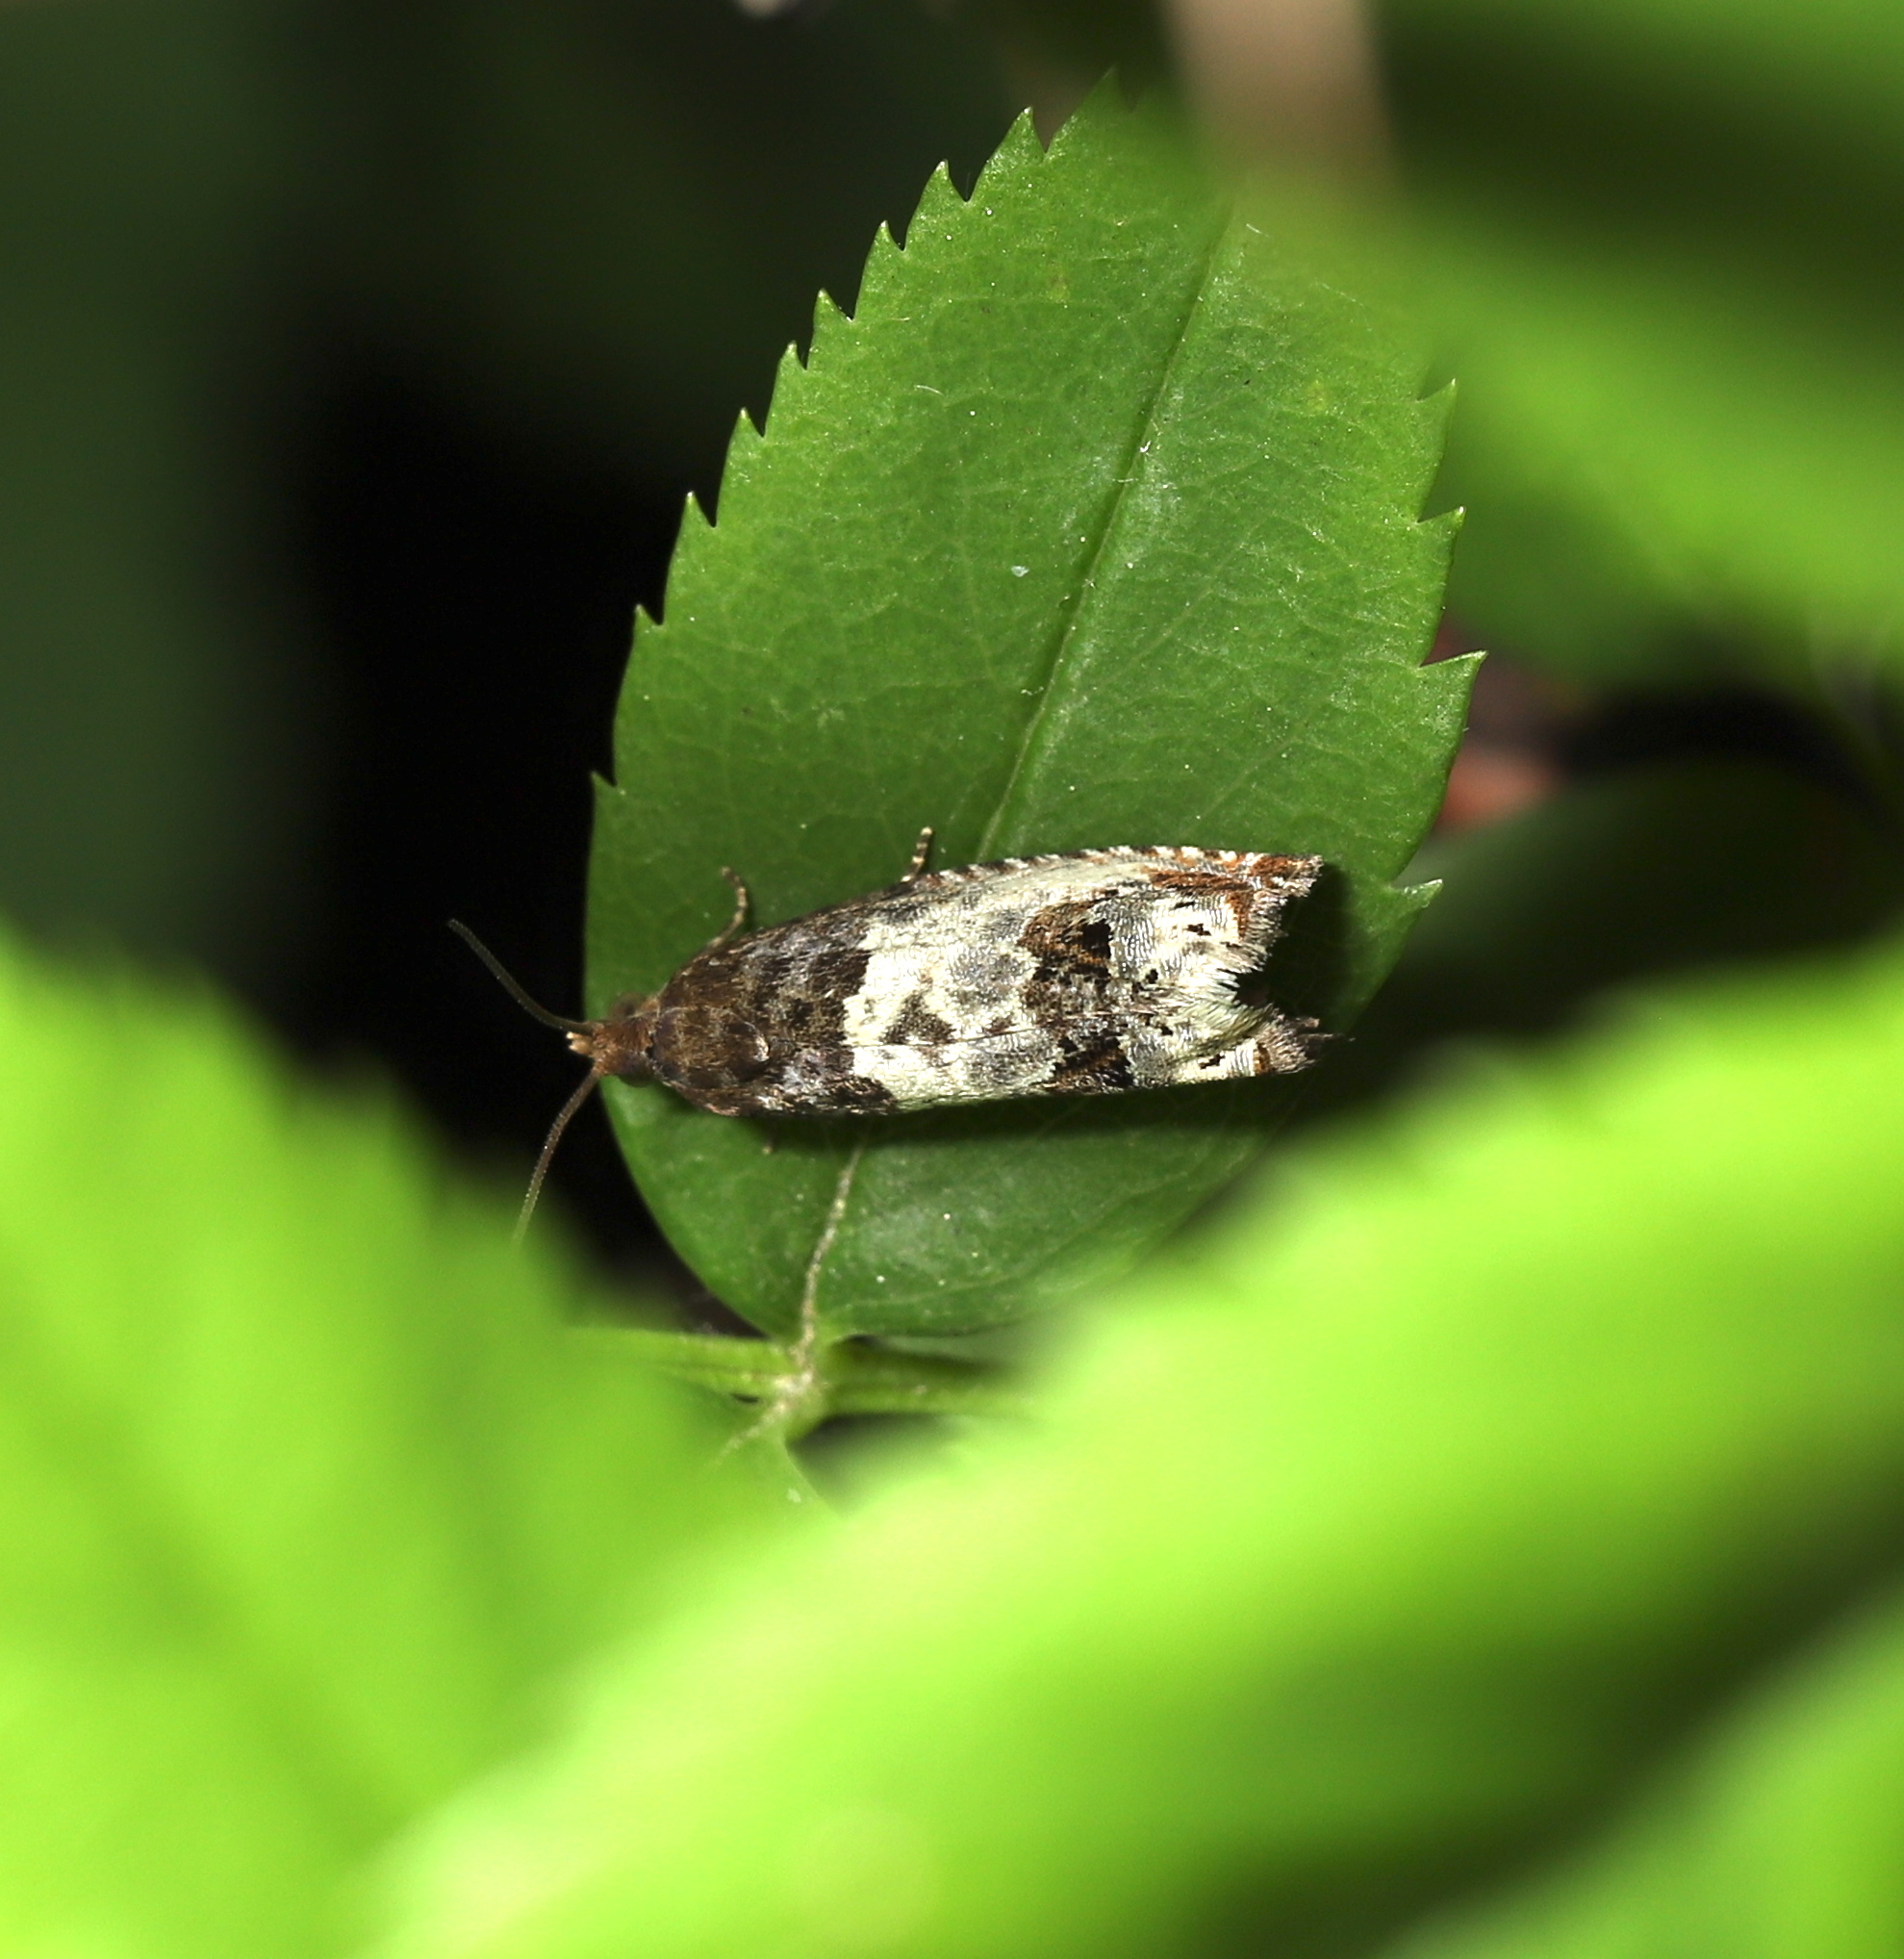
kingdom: Animalia
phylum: Arthropoda
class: Insecta
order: Lepidoptera
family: Tortricidae
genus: Notocelia
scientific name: Notocelia rosaecolana
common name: Common rose bell
